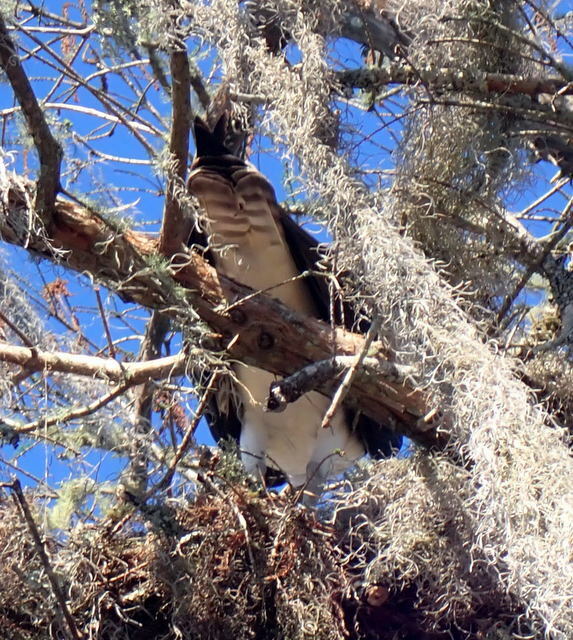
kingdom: Animalia
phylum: Chordata
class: Aves
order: Accipitriformes
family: Pandionidae
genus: Pandion
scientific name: Pandion haliaetus
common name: Osprey
